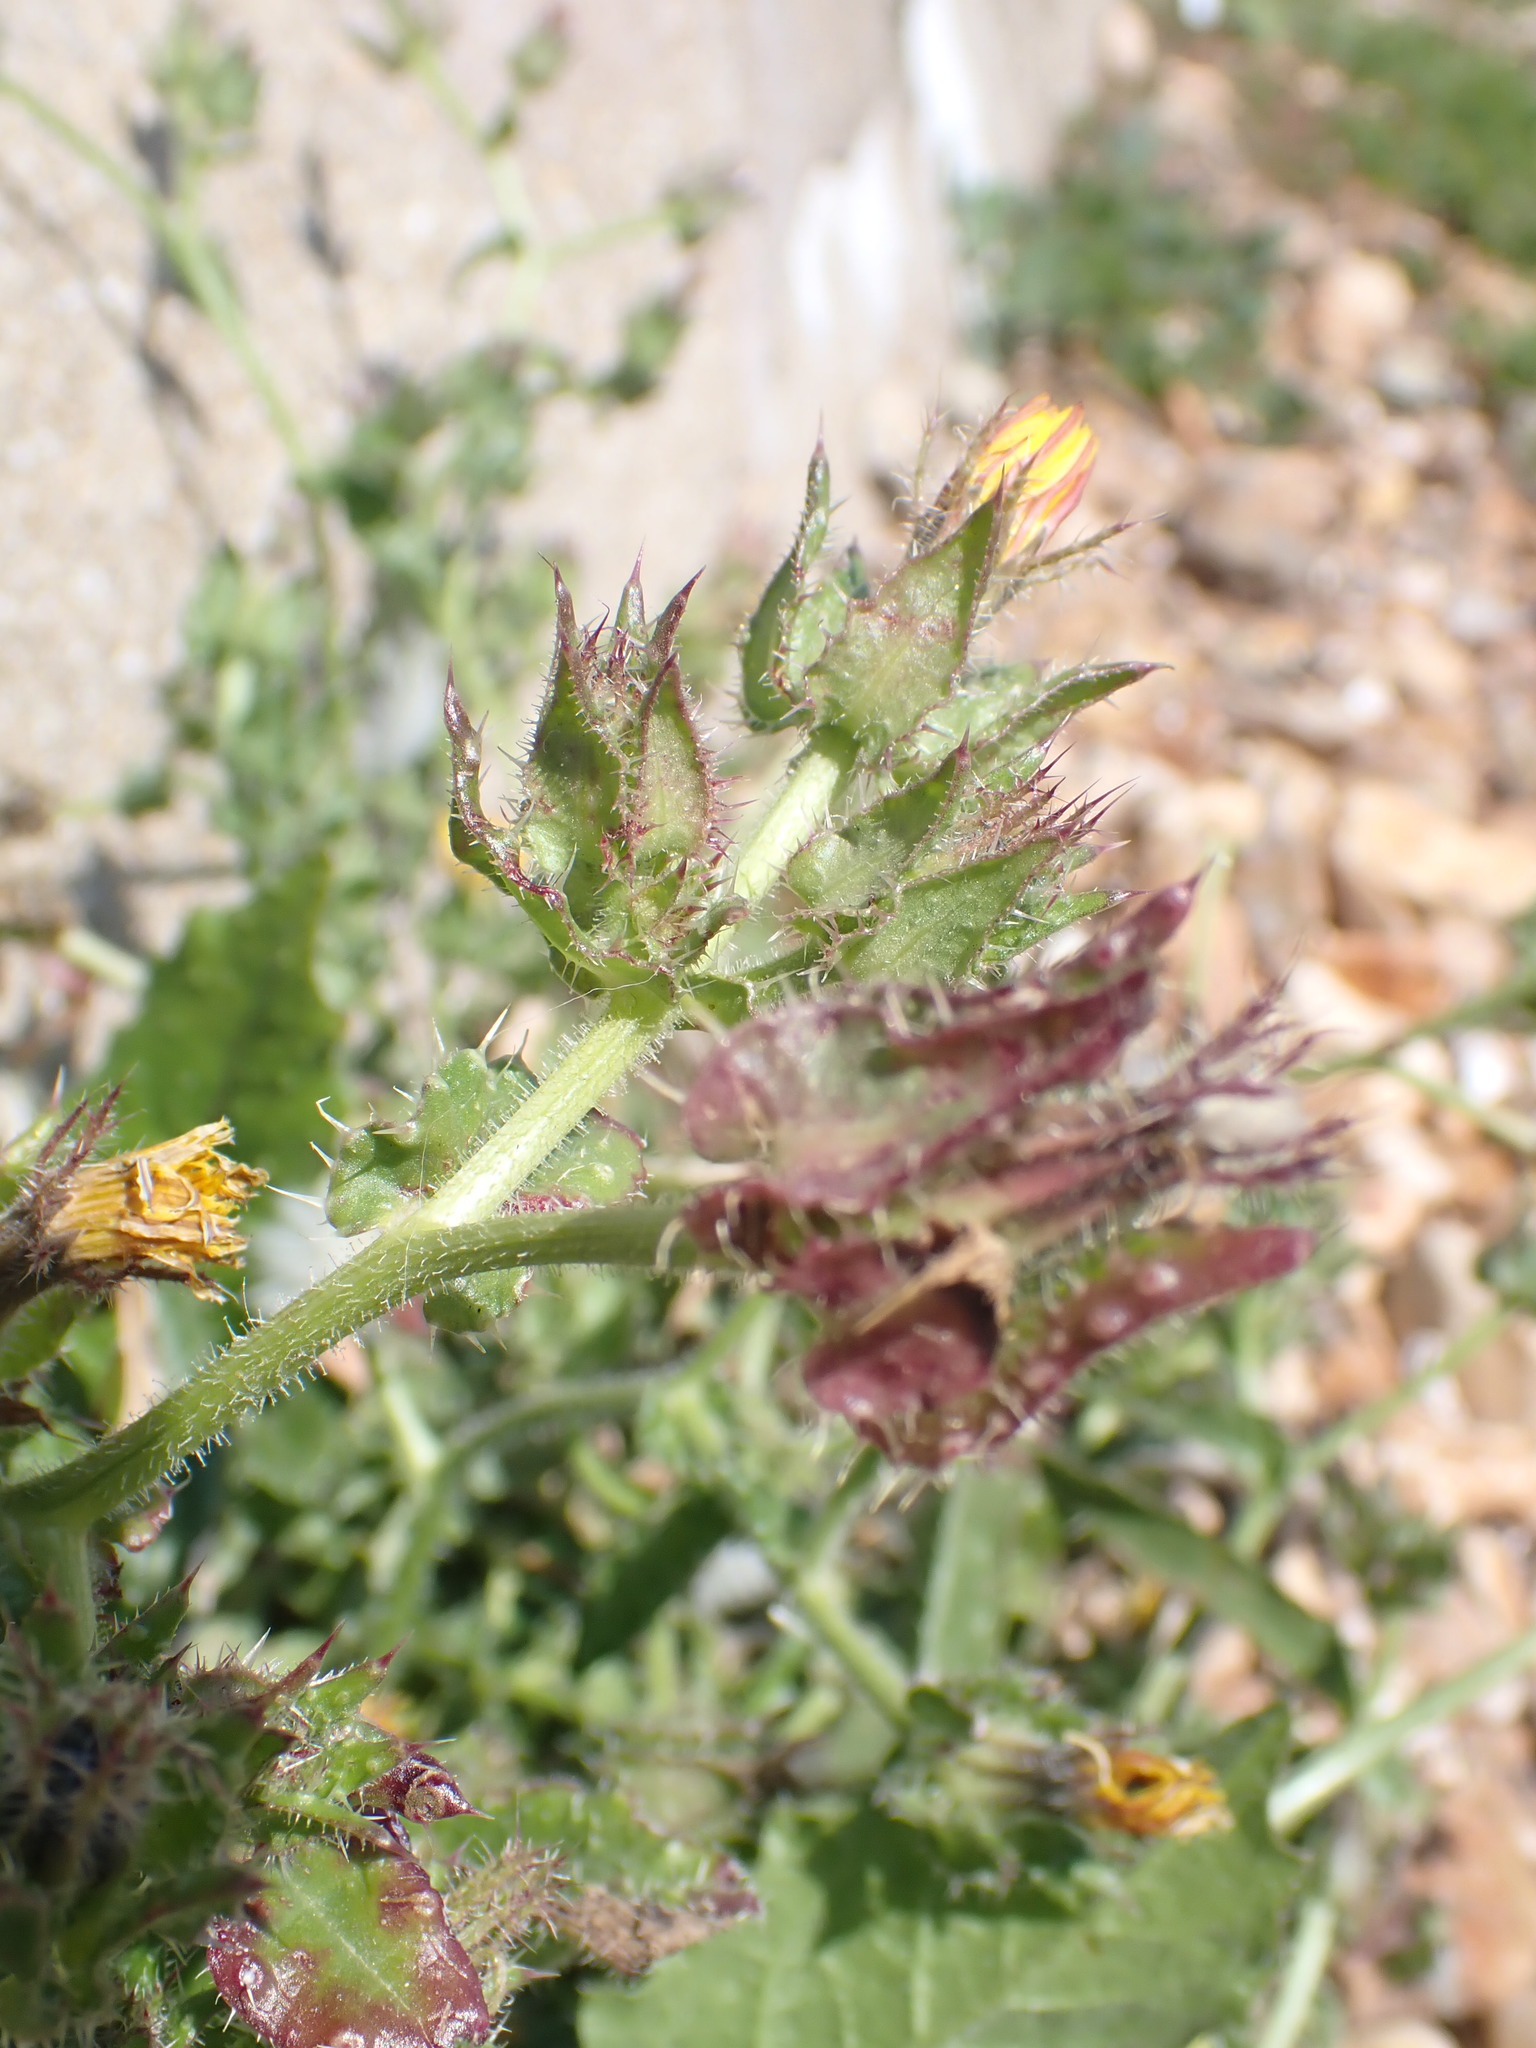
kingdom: Plantae
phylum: Tracheophyta
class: Magnoliopsida
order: Asterales
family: Asteraceae
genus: Helminthotheca
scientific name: Helminthotheca echioides
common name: Ox-tongue
